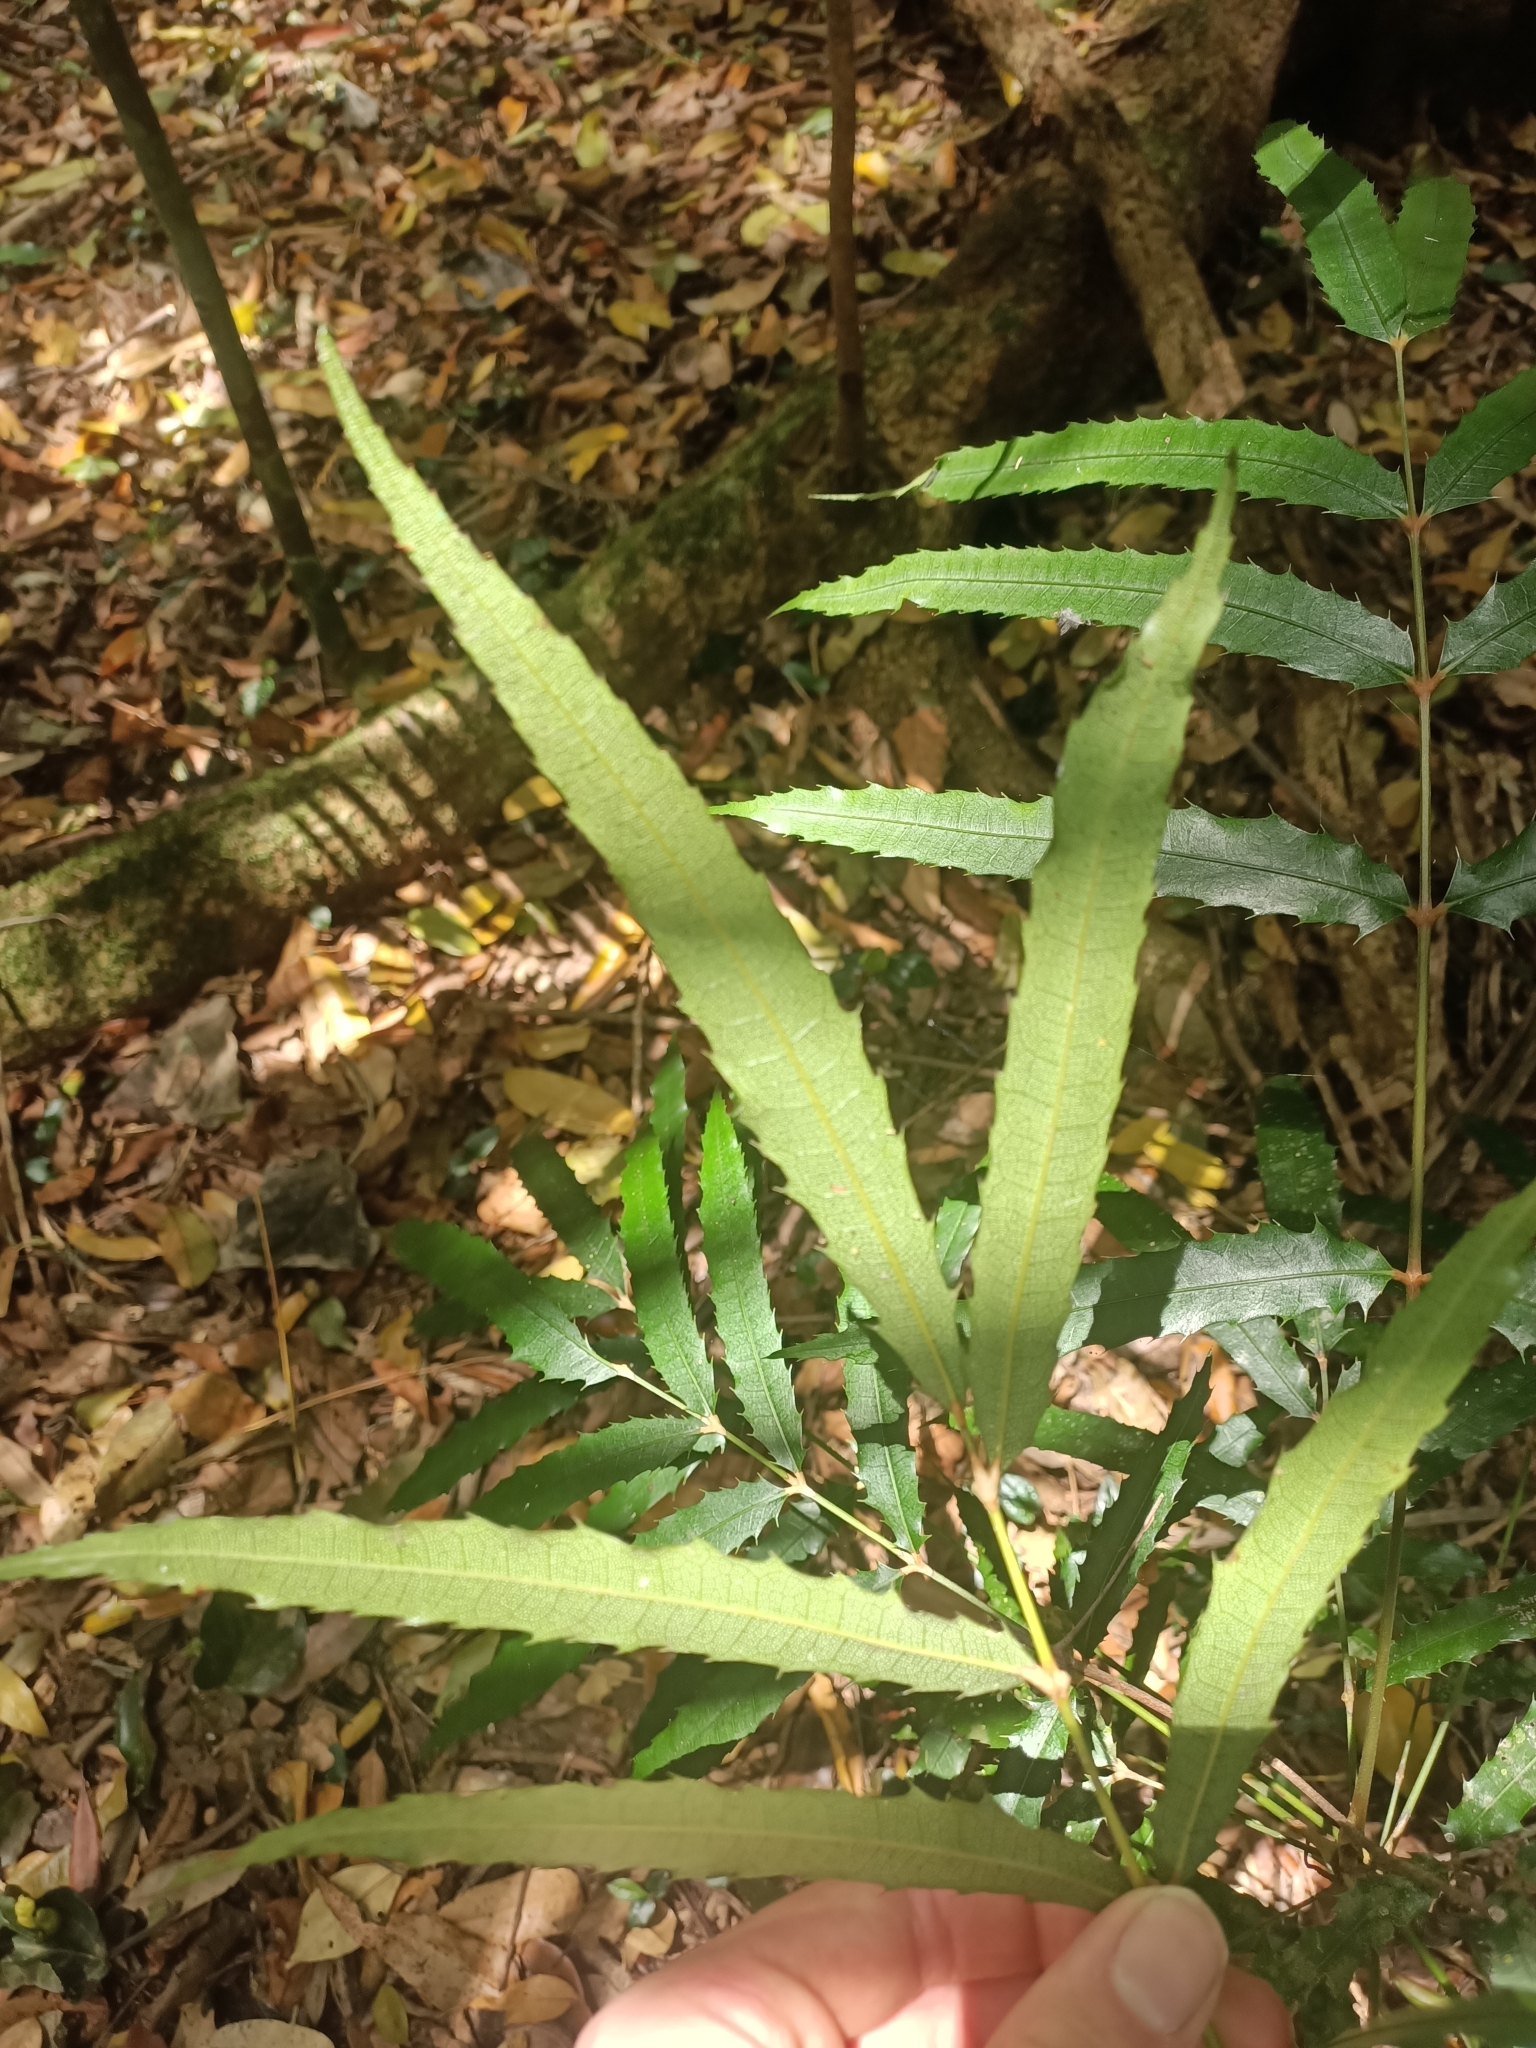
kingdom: Plantae
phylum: Tracheophyta
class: Magnoliopsida
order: Brassicales
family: Akaniaceae
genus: Akania
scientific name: Akania bidwillii
